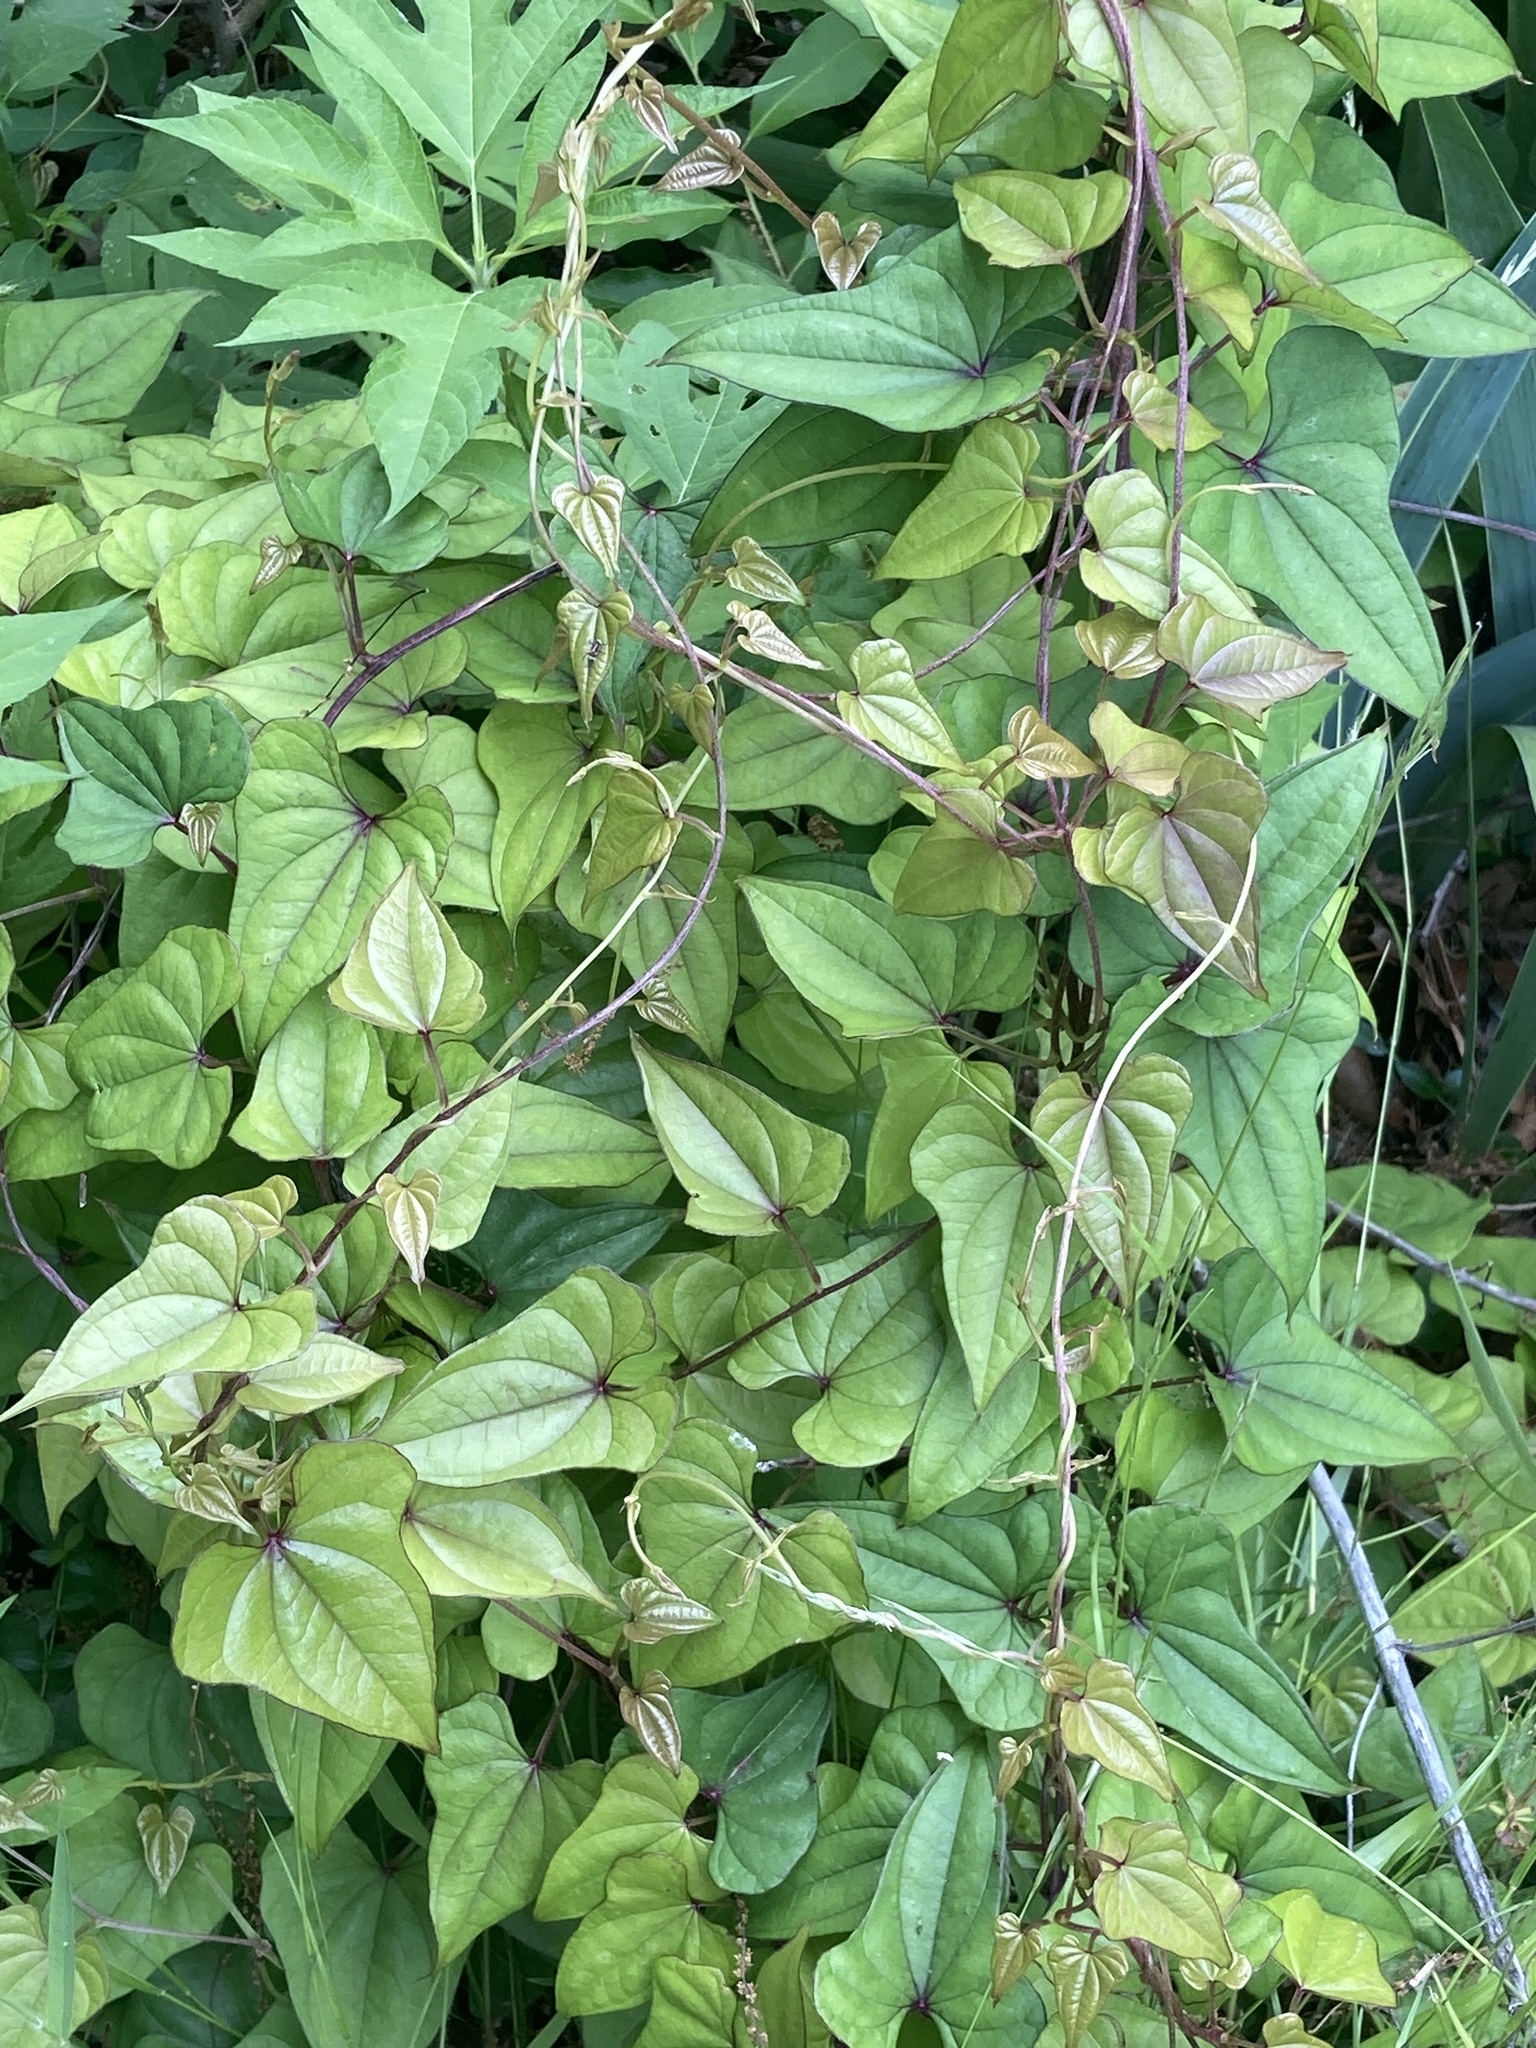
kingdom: Plantae
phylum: Tracheophyta
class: Liliopsida
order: Dioscoreales
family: Dioscoreaceae
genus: Dioscorea
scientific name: Dioscorea polystachya
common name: Chinese yam
